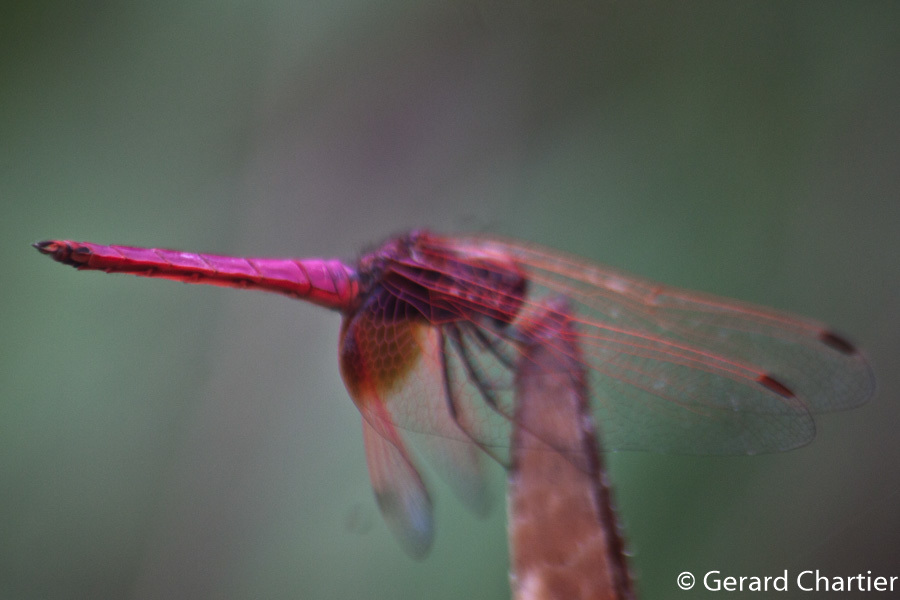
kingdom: Animalia
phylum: Arthropoda
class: Insecta
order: Odonata
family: Libellulidae
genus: Trithemis
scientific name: Trithemis aurora
